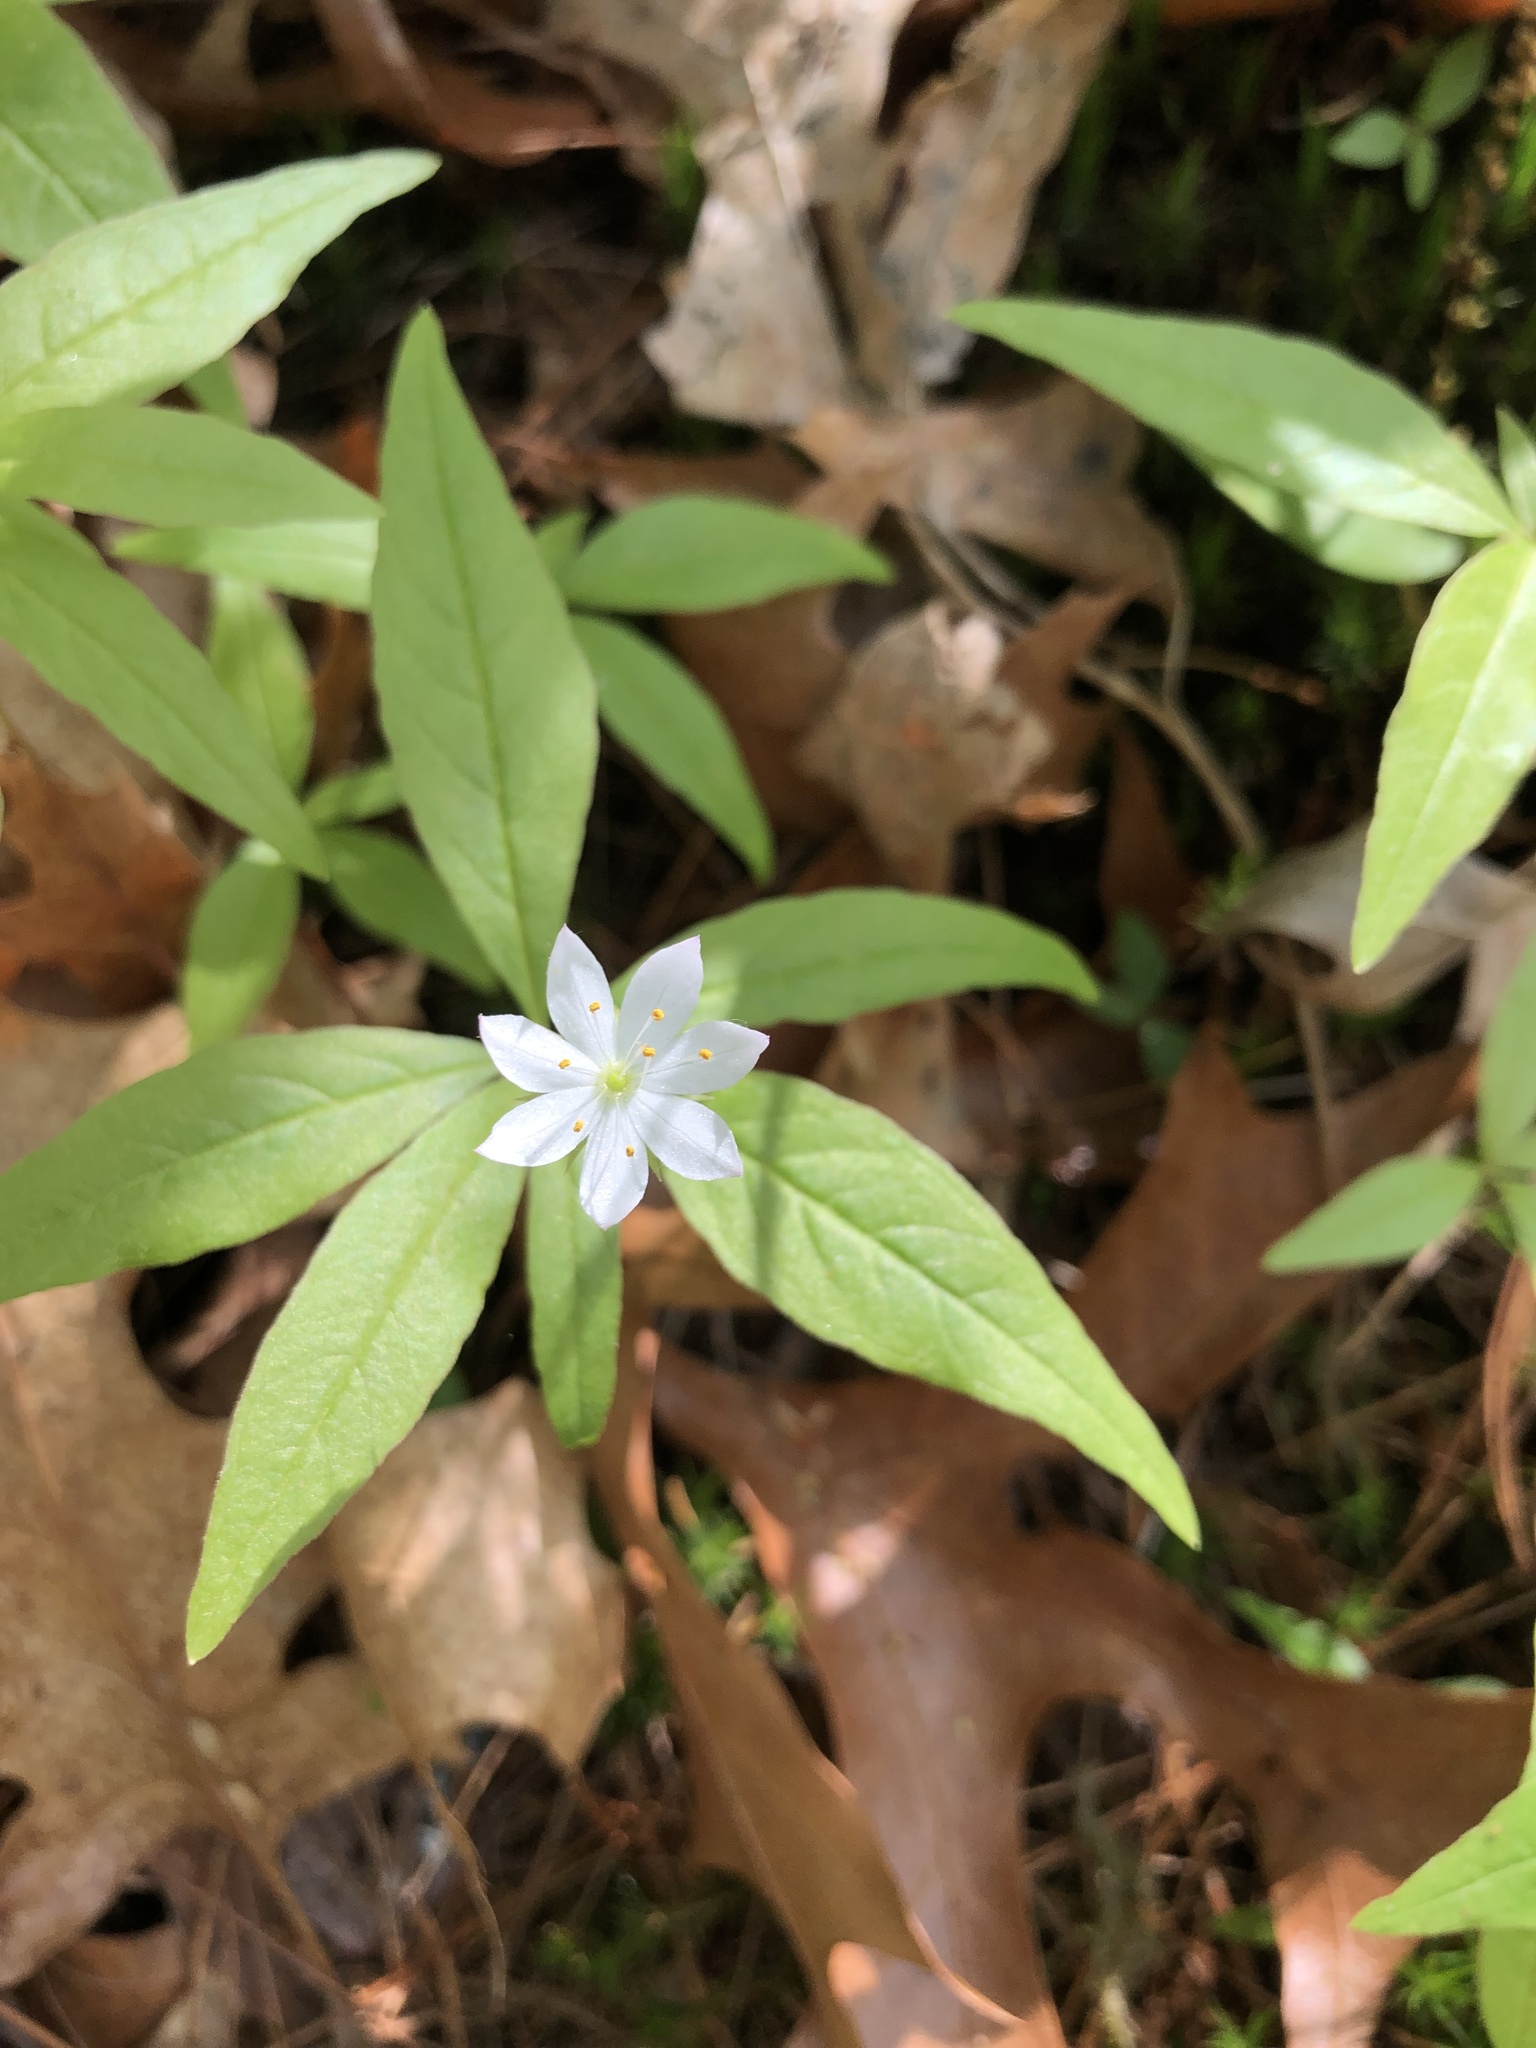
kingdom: Plantae
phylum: Tracheophyta
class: Magnoliopsida
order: Ericales
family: Primulaceae
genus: Lysimachia
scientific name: Lysimachia borealis
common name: American starflower
